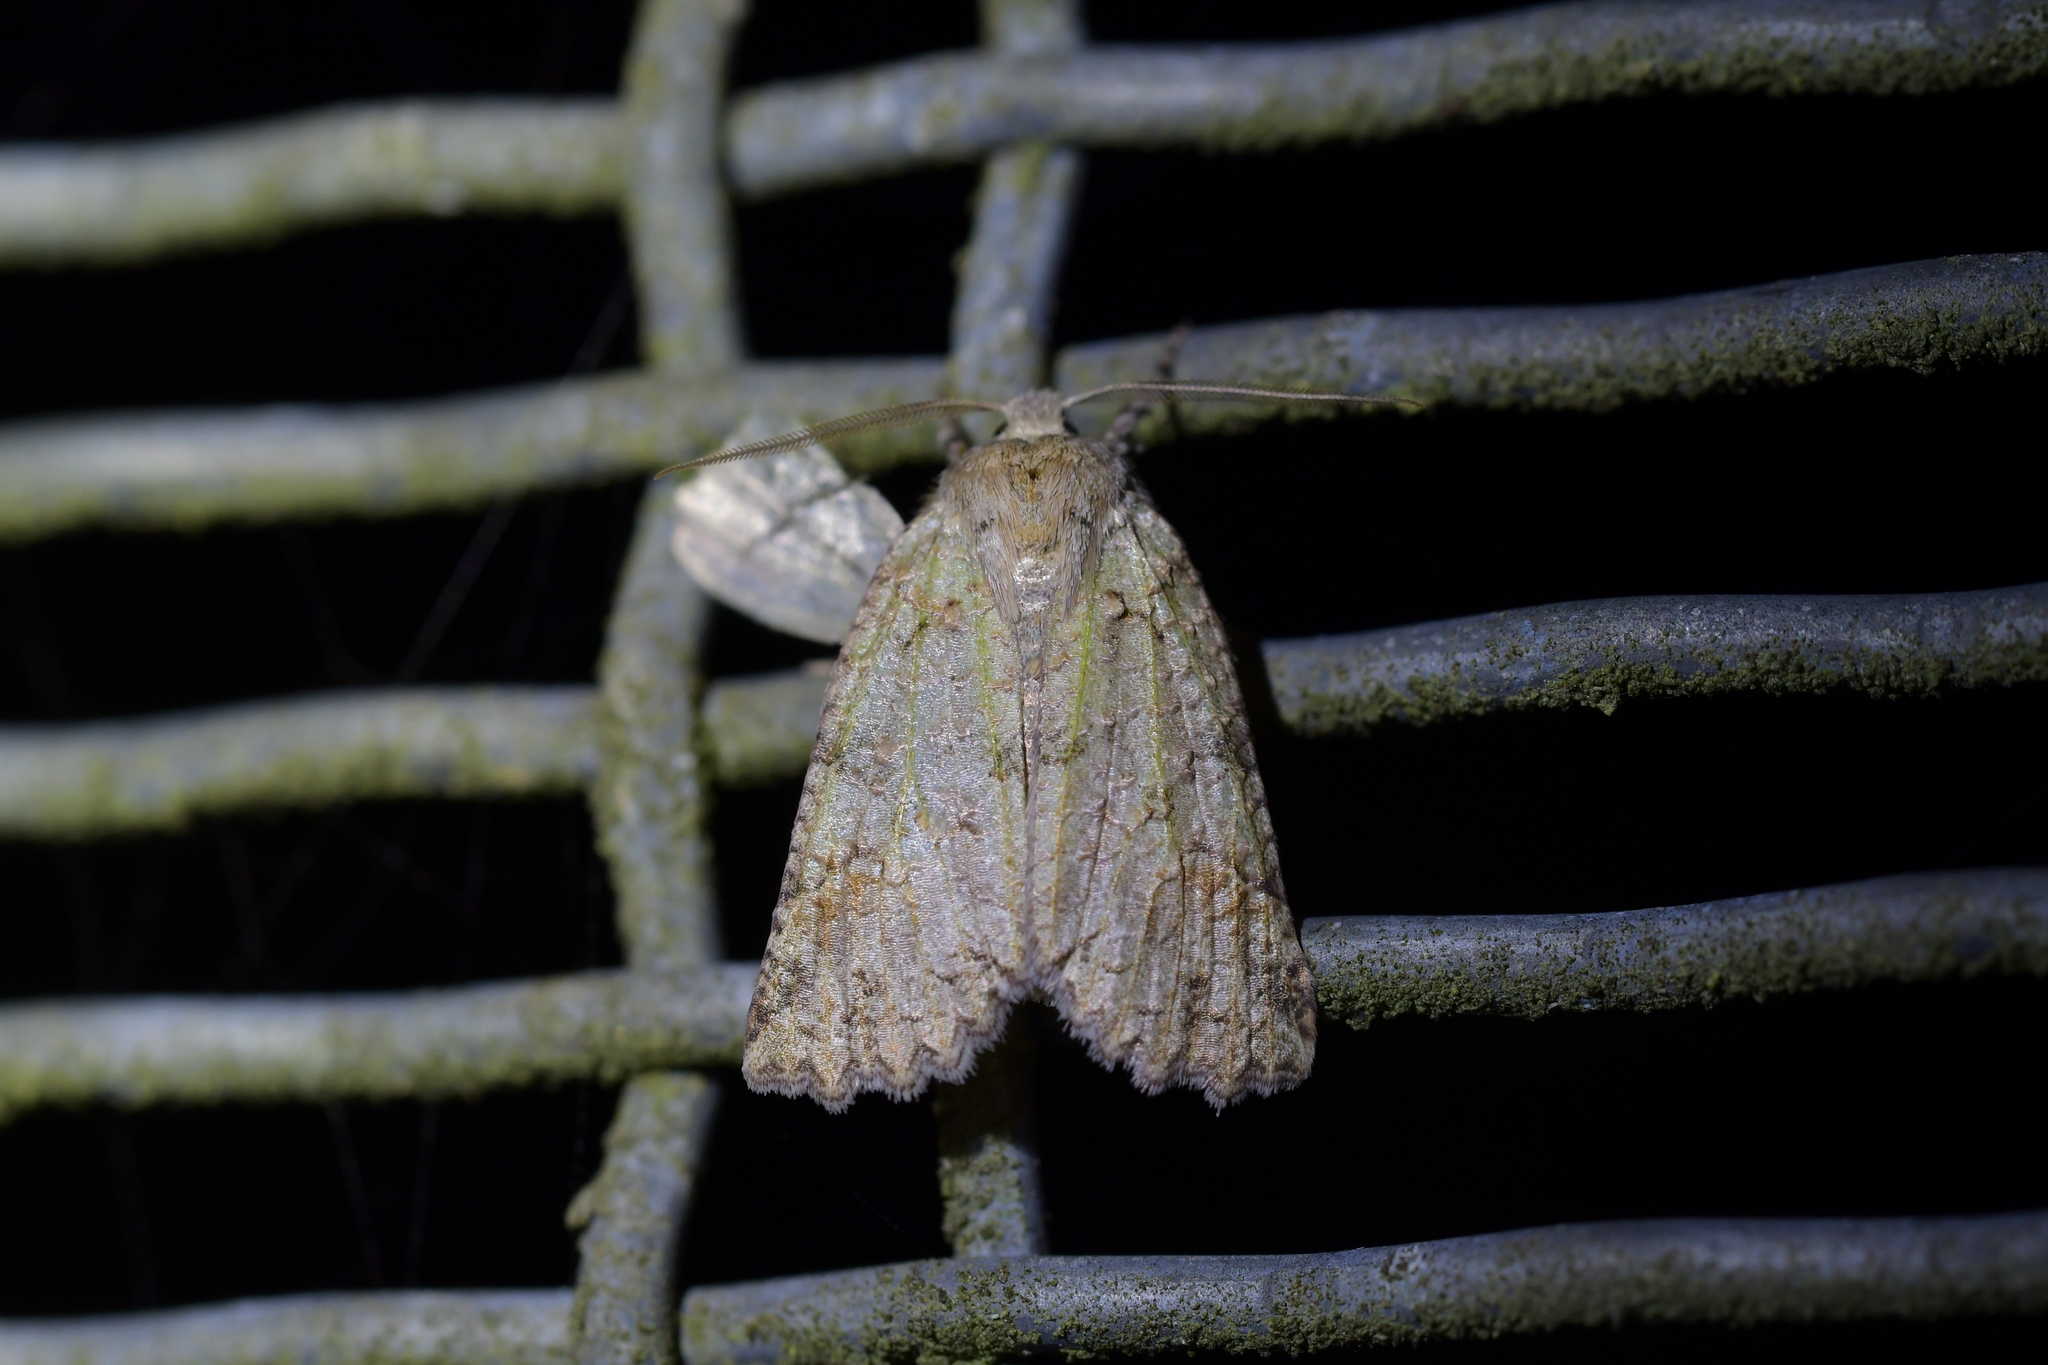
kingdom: Animalia
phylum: Arthropoda
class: Insecta
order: Lepidoptera
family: Geometridae
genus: Declana
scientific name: Declana floccosa
